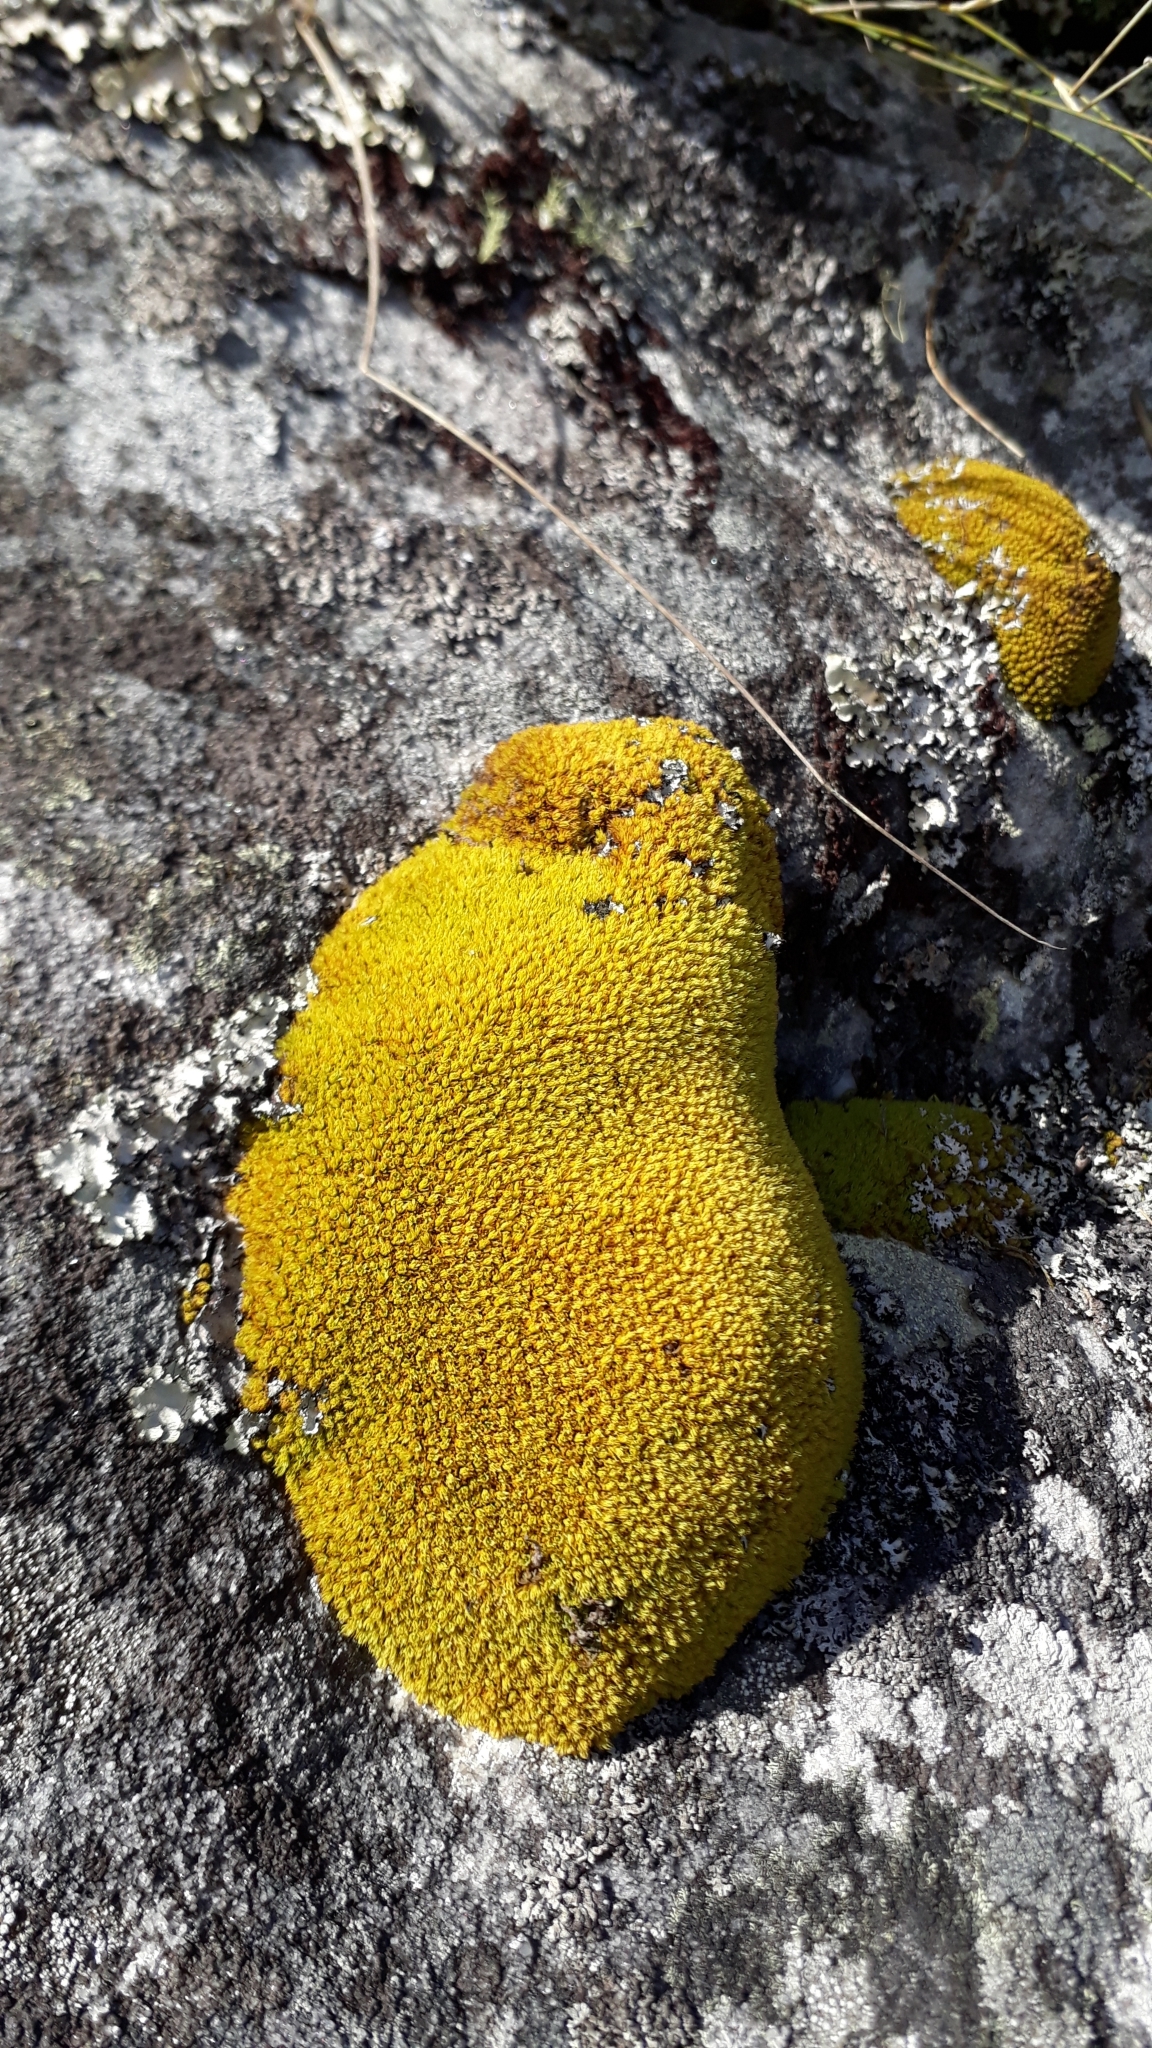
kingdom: Plantae
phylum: Bryophyta
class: Bryopsida
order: Dicranales
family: Hypodontiaceae
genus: Hypodontium
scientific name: Hypodontium pomiforme
